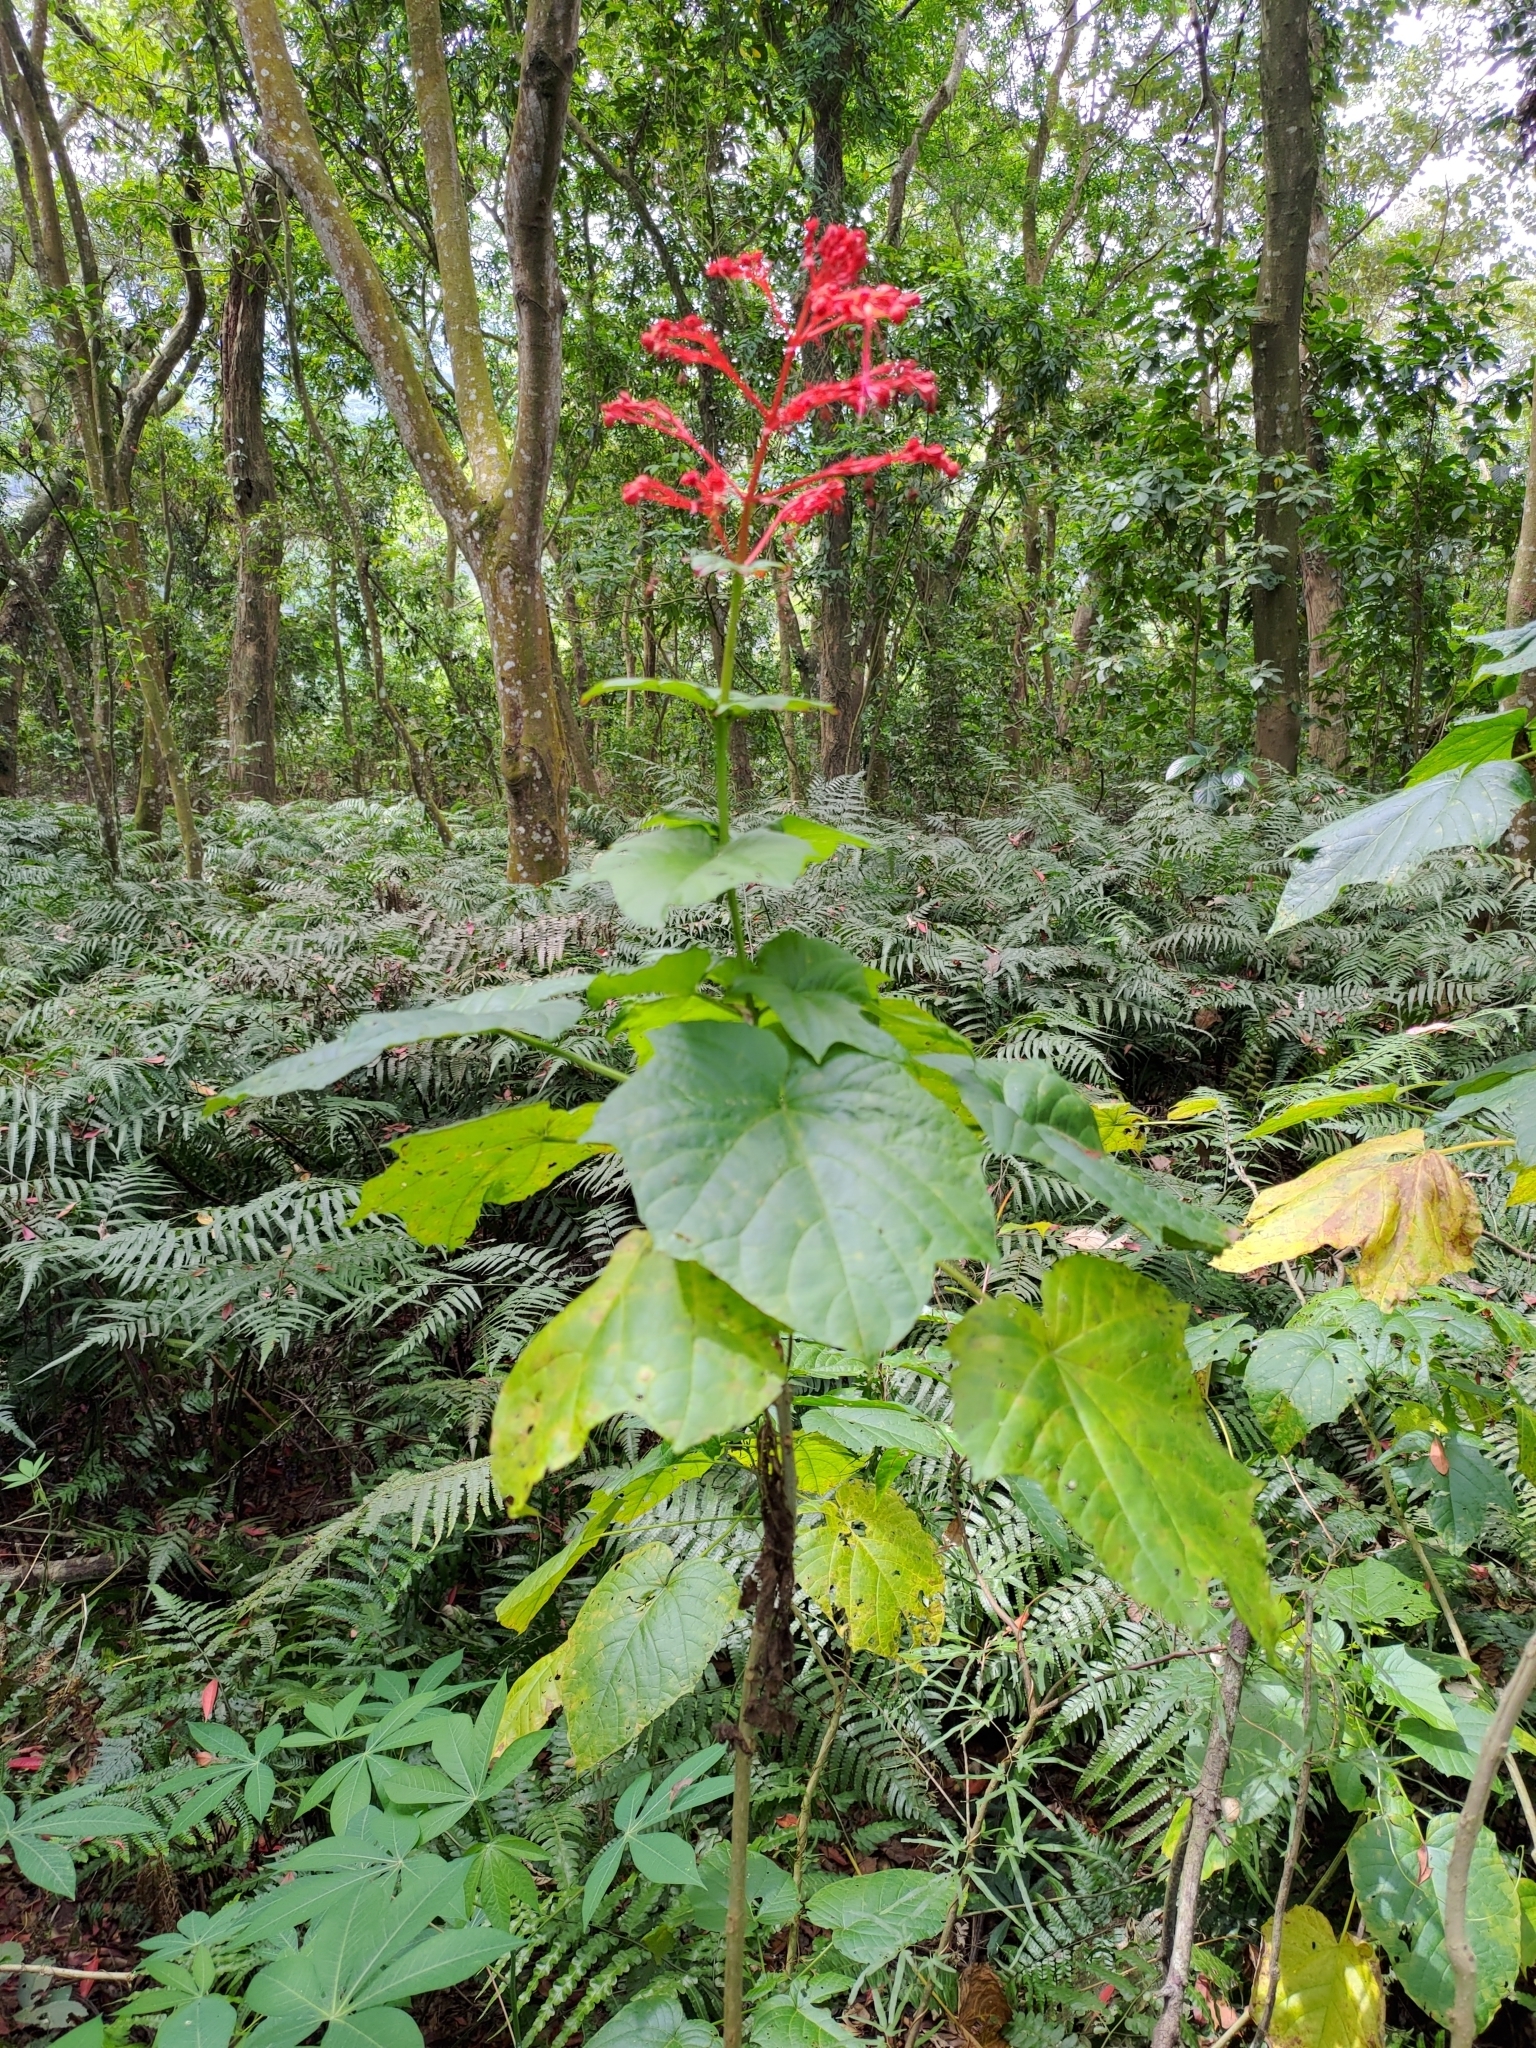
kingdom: Plantae
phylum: Tracheophyta
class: Magnoliopsida
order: Lamiales
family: Lamiaceae
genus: Clerodendrum
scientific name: Clerodendrum japonicum
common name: Japanese glorybower
